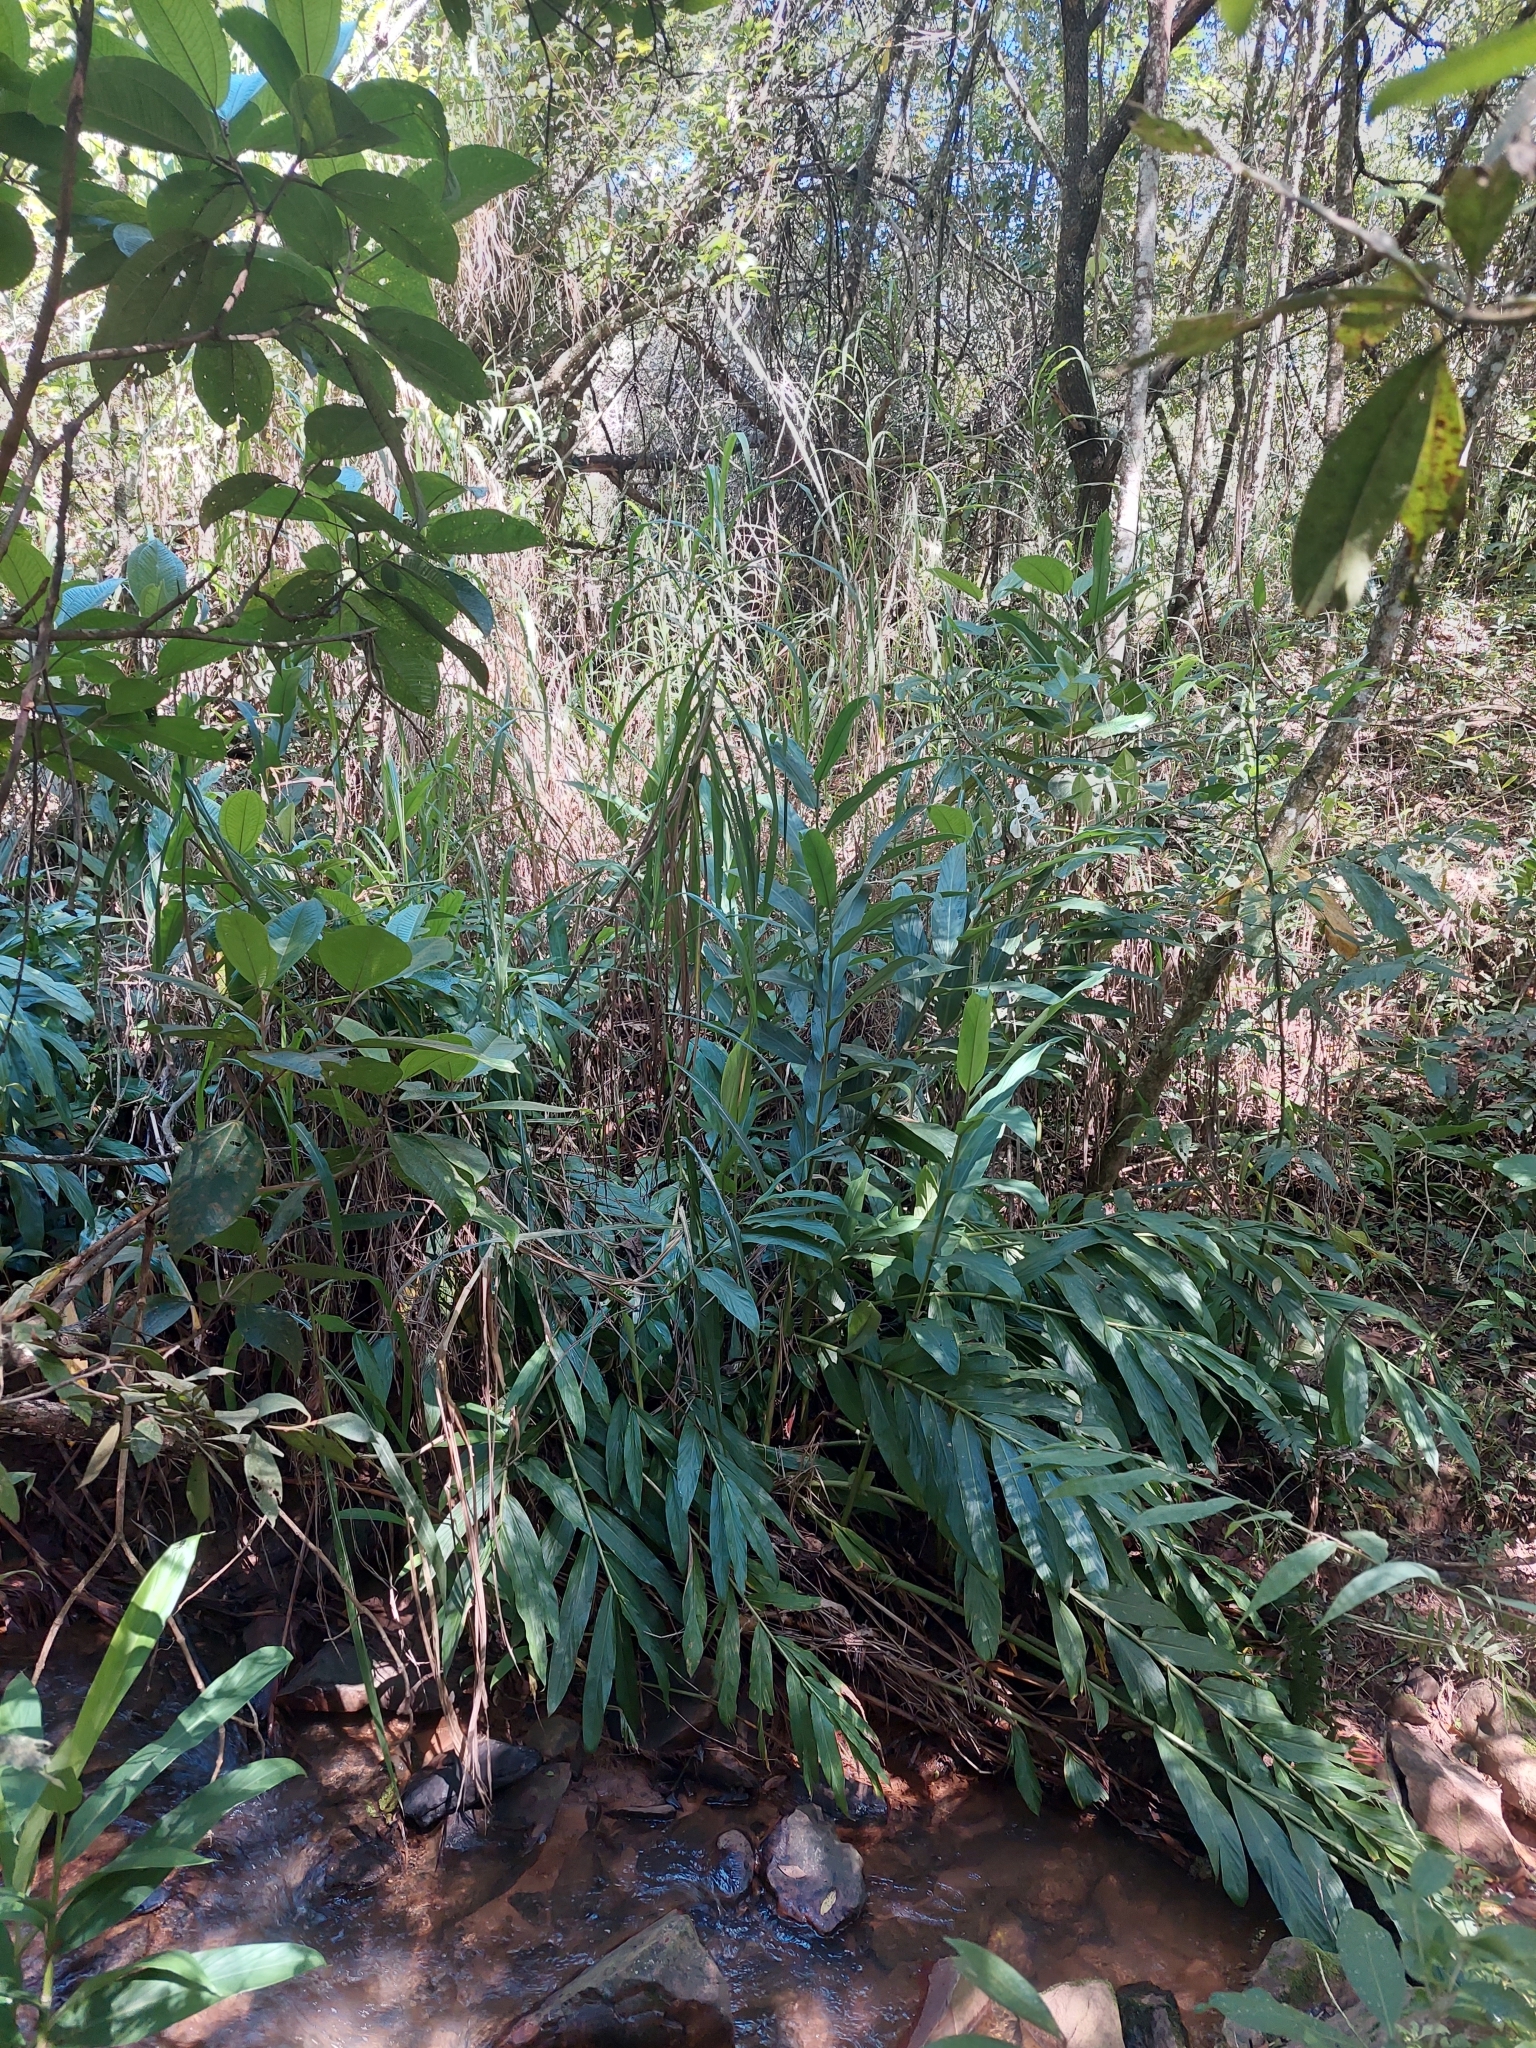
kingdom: Plantae
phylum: Tracheophyta
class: Liliopsida
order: Zingiberales
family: Zingiberaceae
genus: Hedychium
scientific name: Hedychium coronarium
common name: White garland-lily
